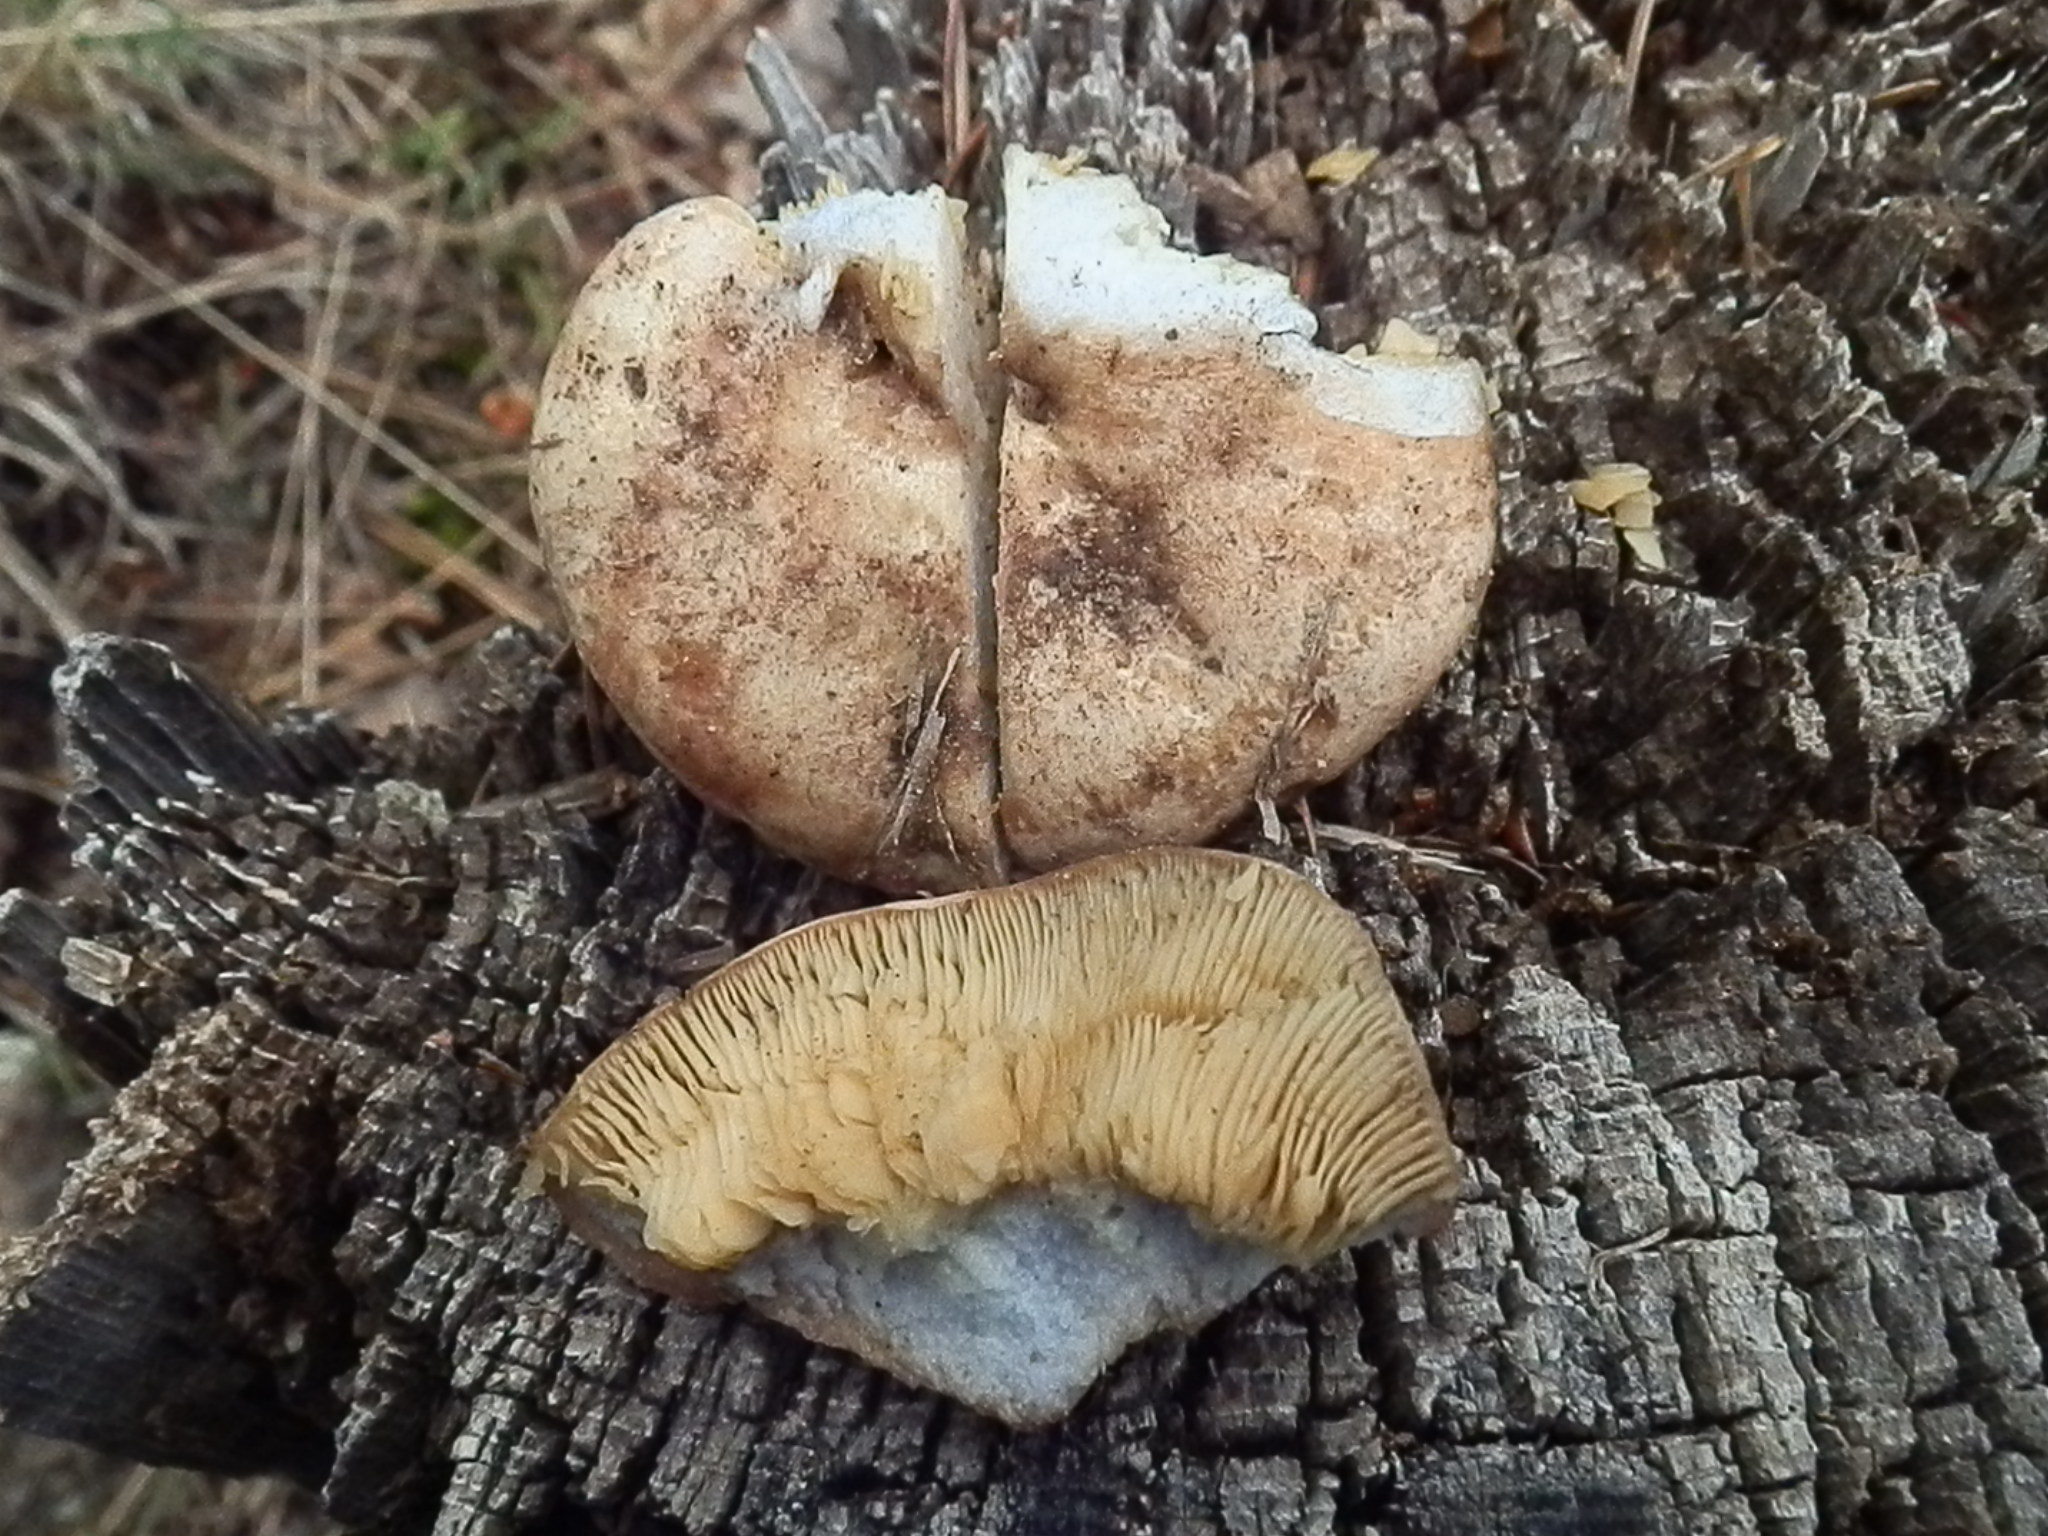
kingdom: Fungi
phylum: Basidiomycota
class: Agaricomycetes
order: Russulales
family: Russulaceae
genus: Lactarius
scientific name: Lactarius deterrimus
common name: False saffron milkcap
